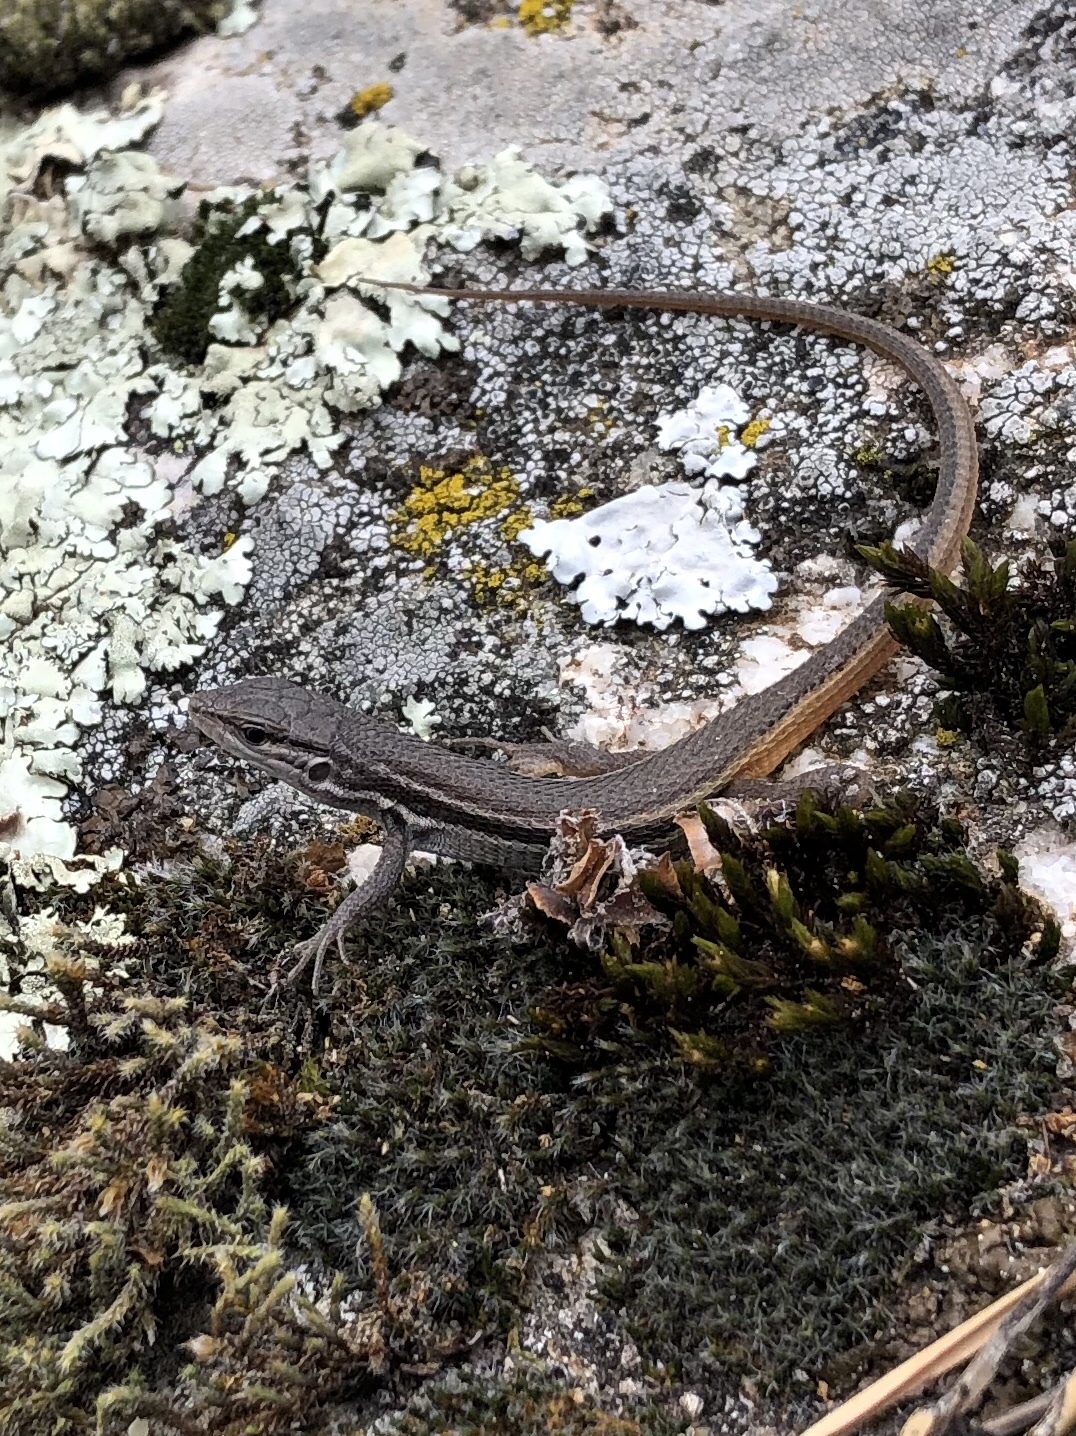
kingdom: Animalia
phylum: Chordata
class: Squamata
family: Lacertidae
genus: Psammodromus
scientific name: Psammodromus algirus
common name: Algerian psammodromus
